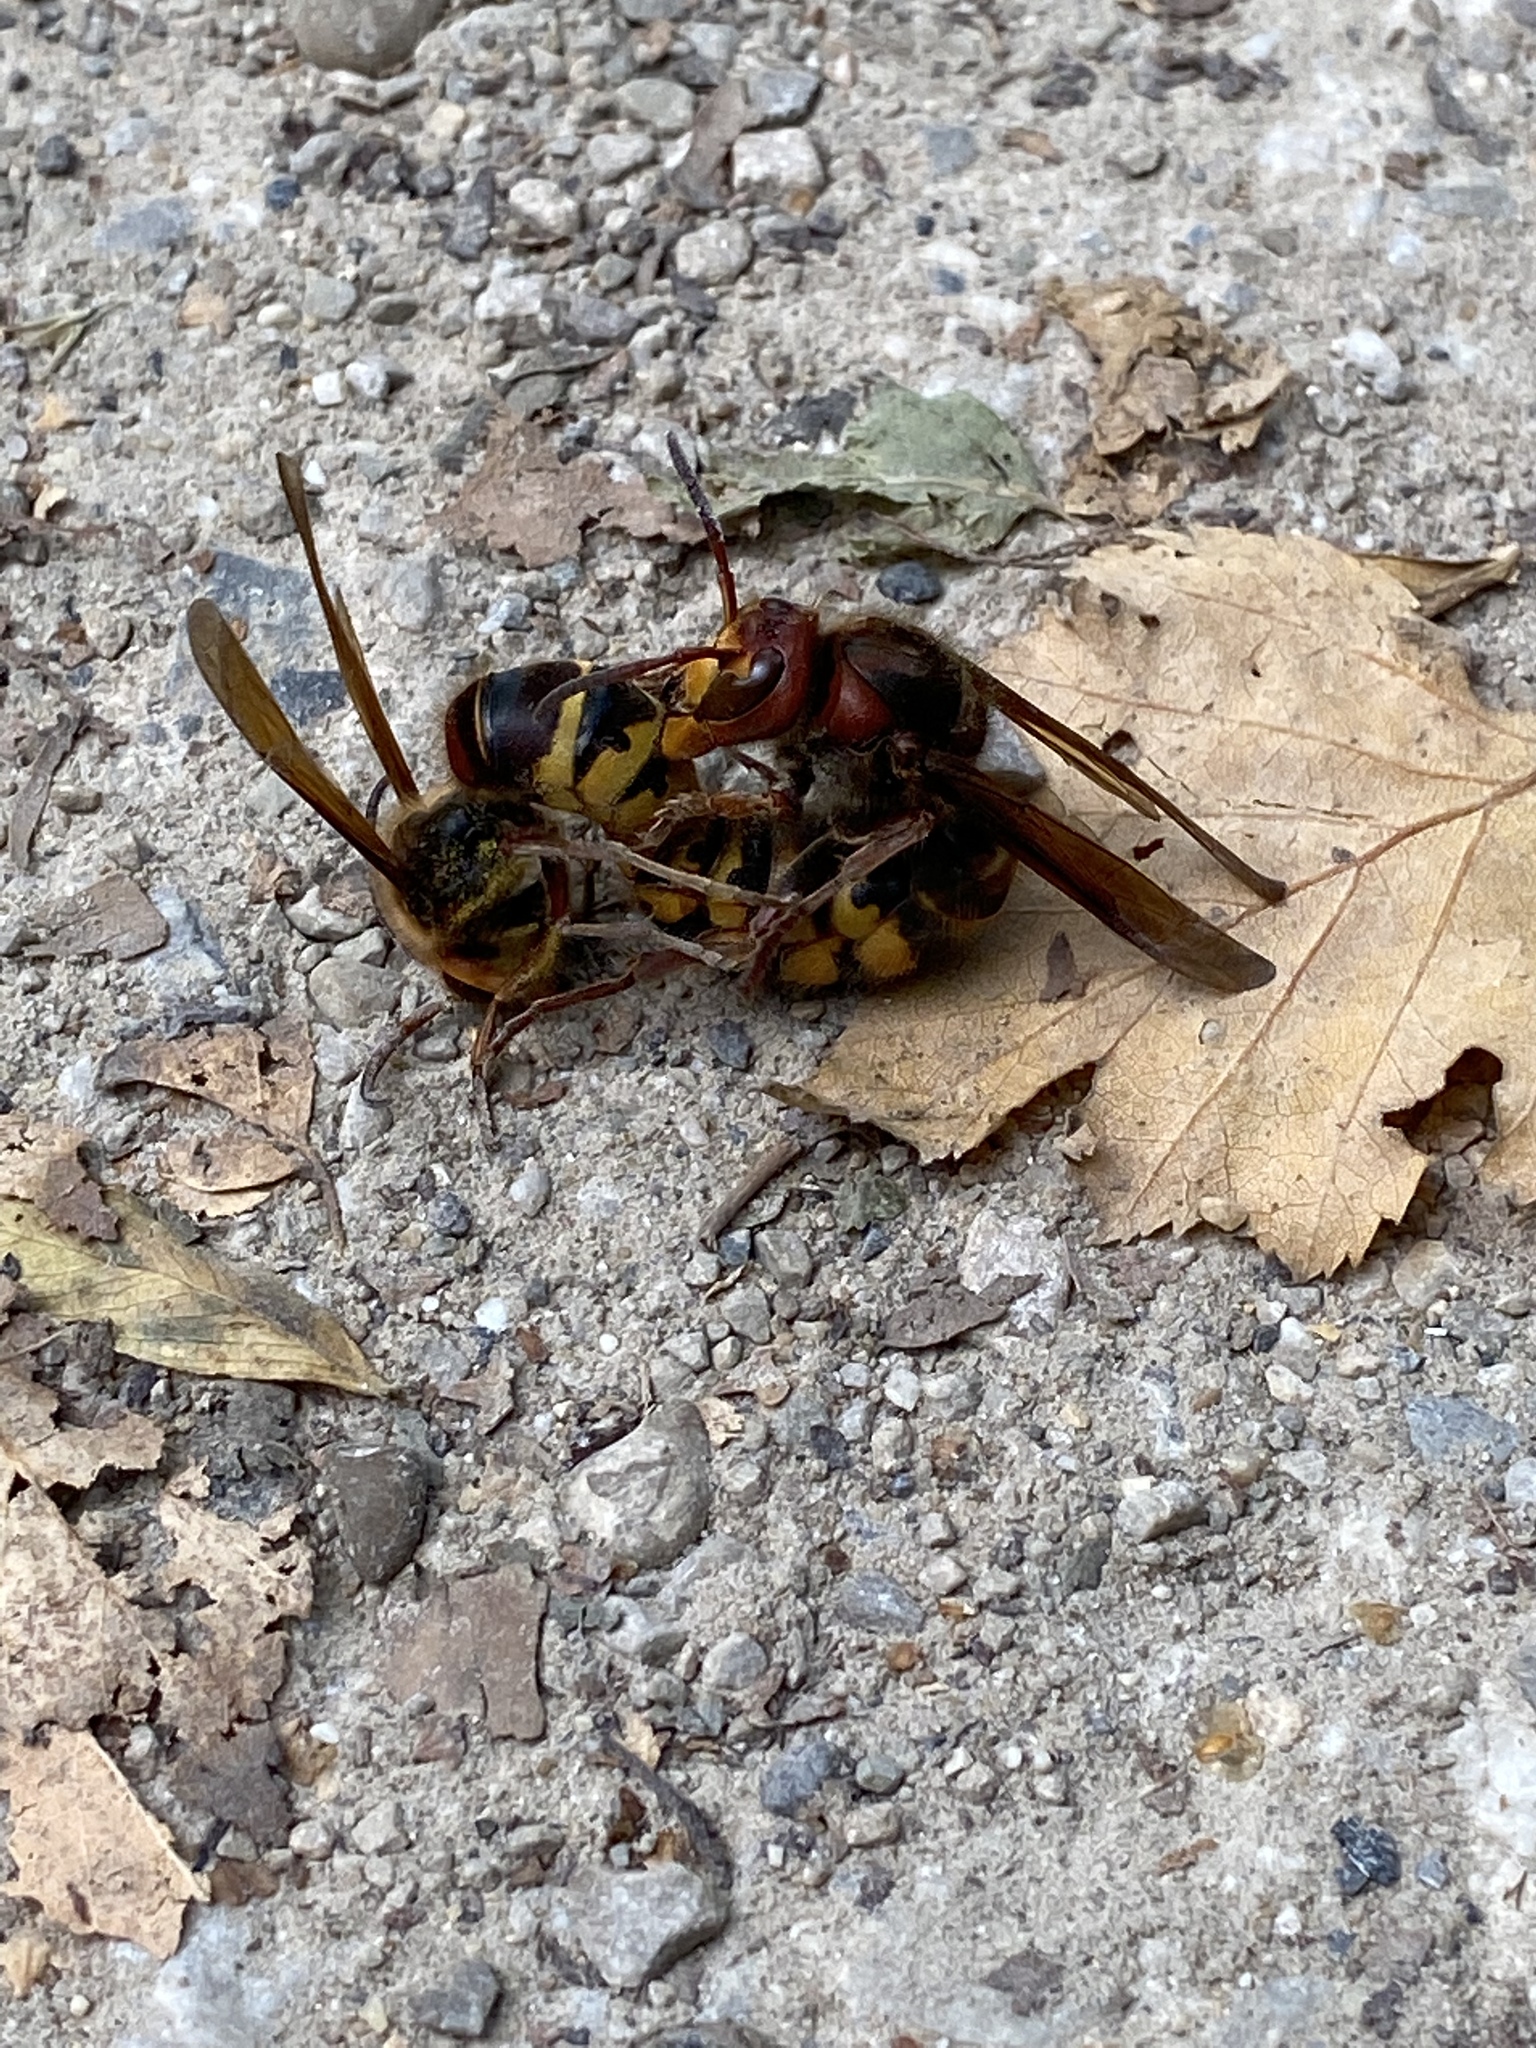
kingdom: Animalia
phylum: Arthropoda
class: Insecta
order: Hymenoptera
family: Vespidae
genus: Vespa
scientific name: Vespa crabro
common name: Hornet
